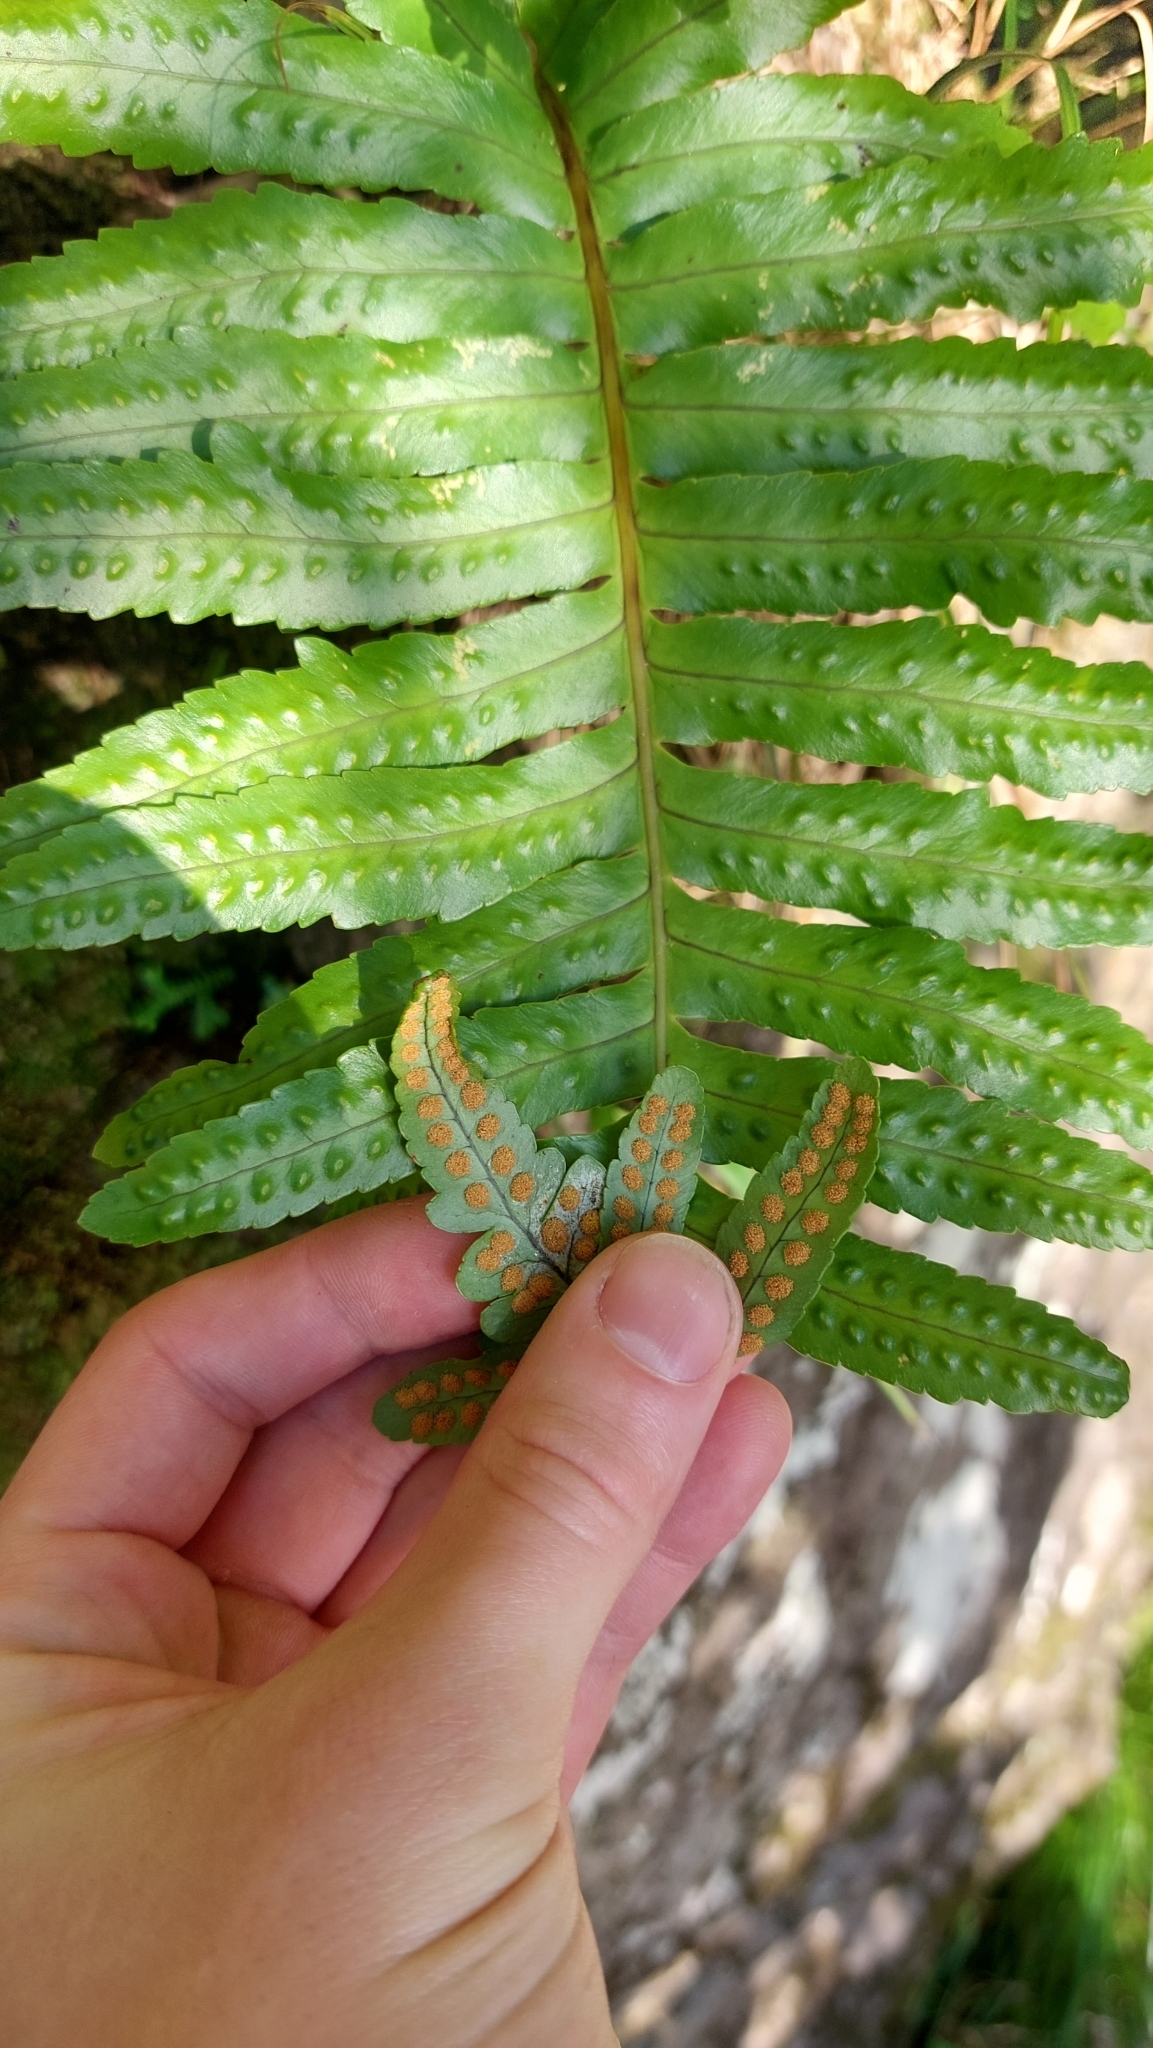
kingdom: Plantae
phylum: Tracheophyta
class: Polypodiopsida
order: Polypodiales
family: Polypodiaceae
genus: Polypodium
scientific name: Polypodium macaronesicum
